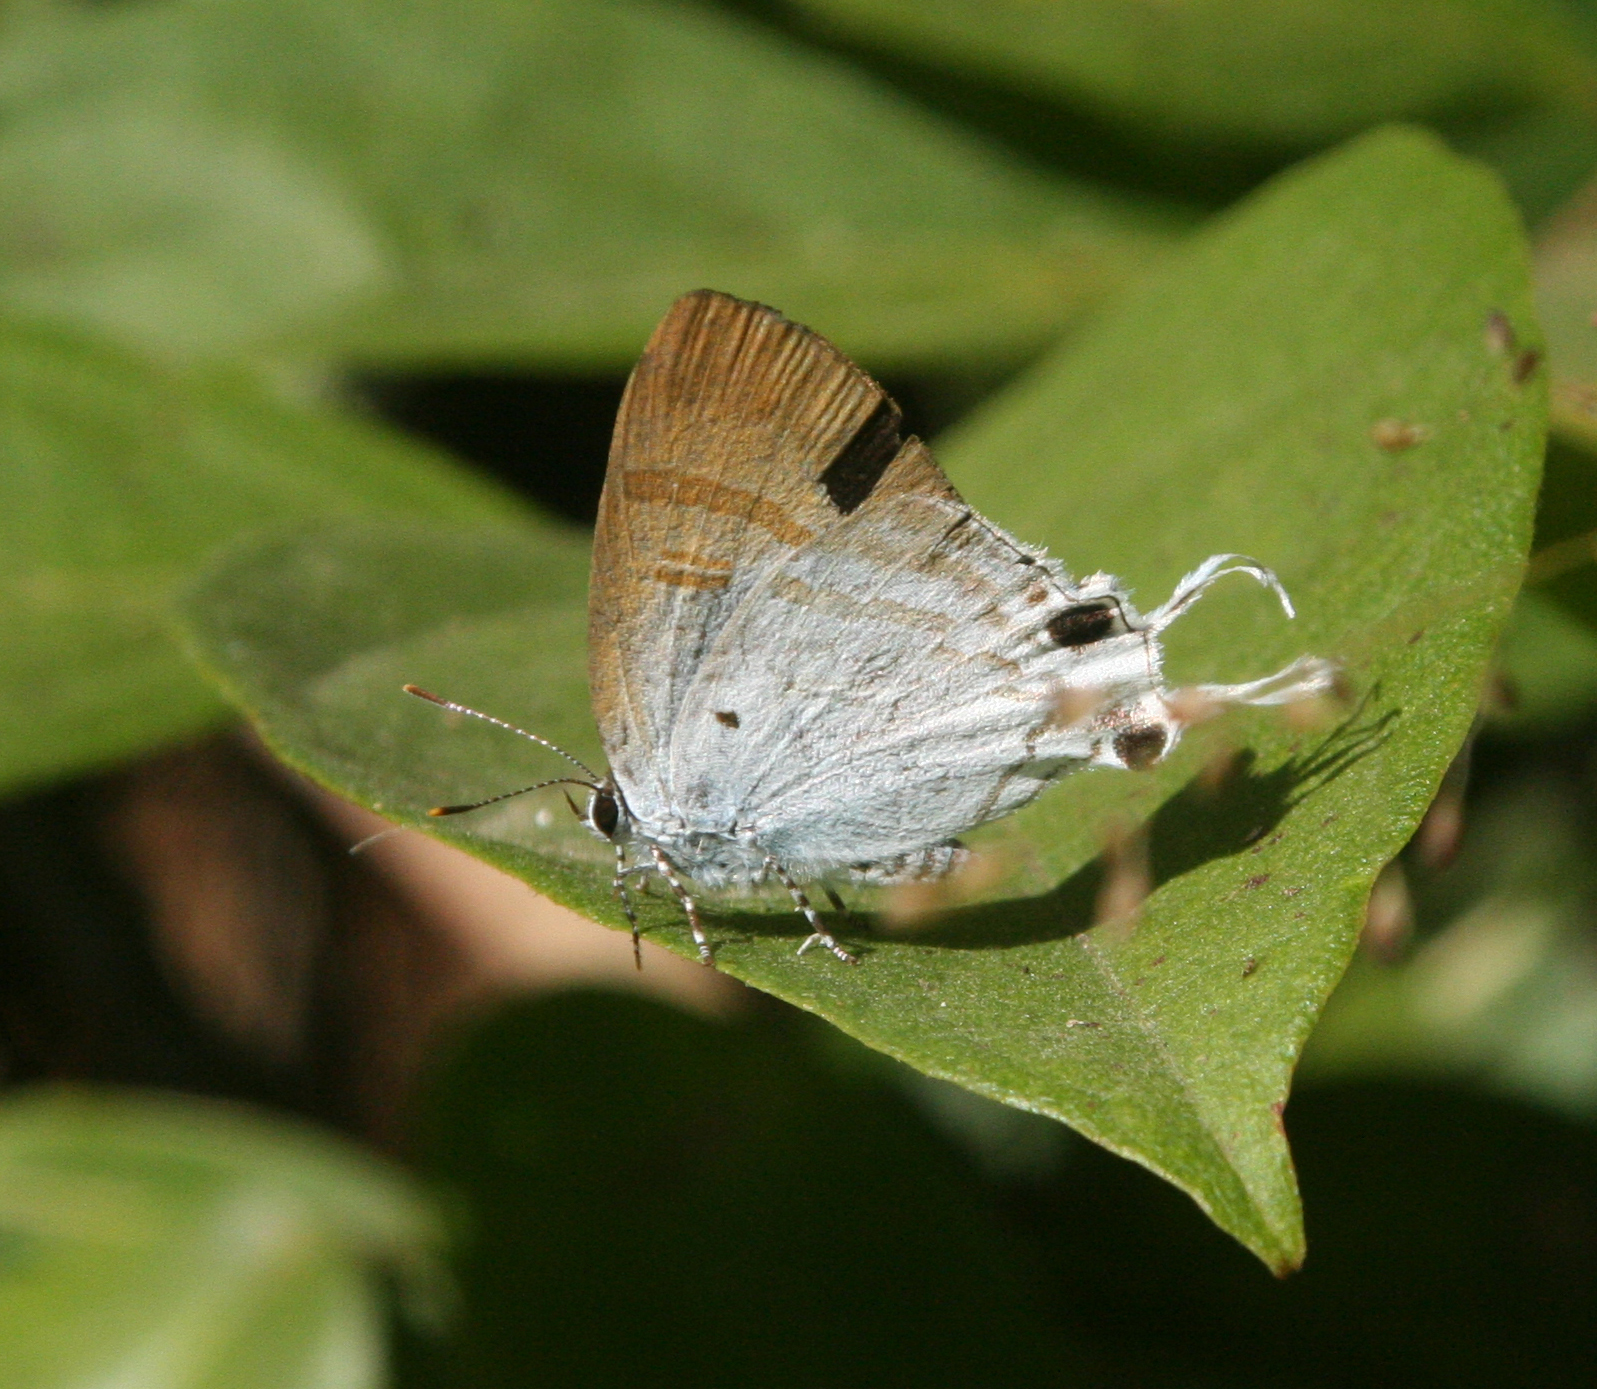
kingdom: Animalia
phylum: Arthropoda
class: Insecta
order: Lepidoptera
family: Lycaenidae
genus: Zeltus
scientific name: Zeltus amasa
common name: Fluffy tit
